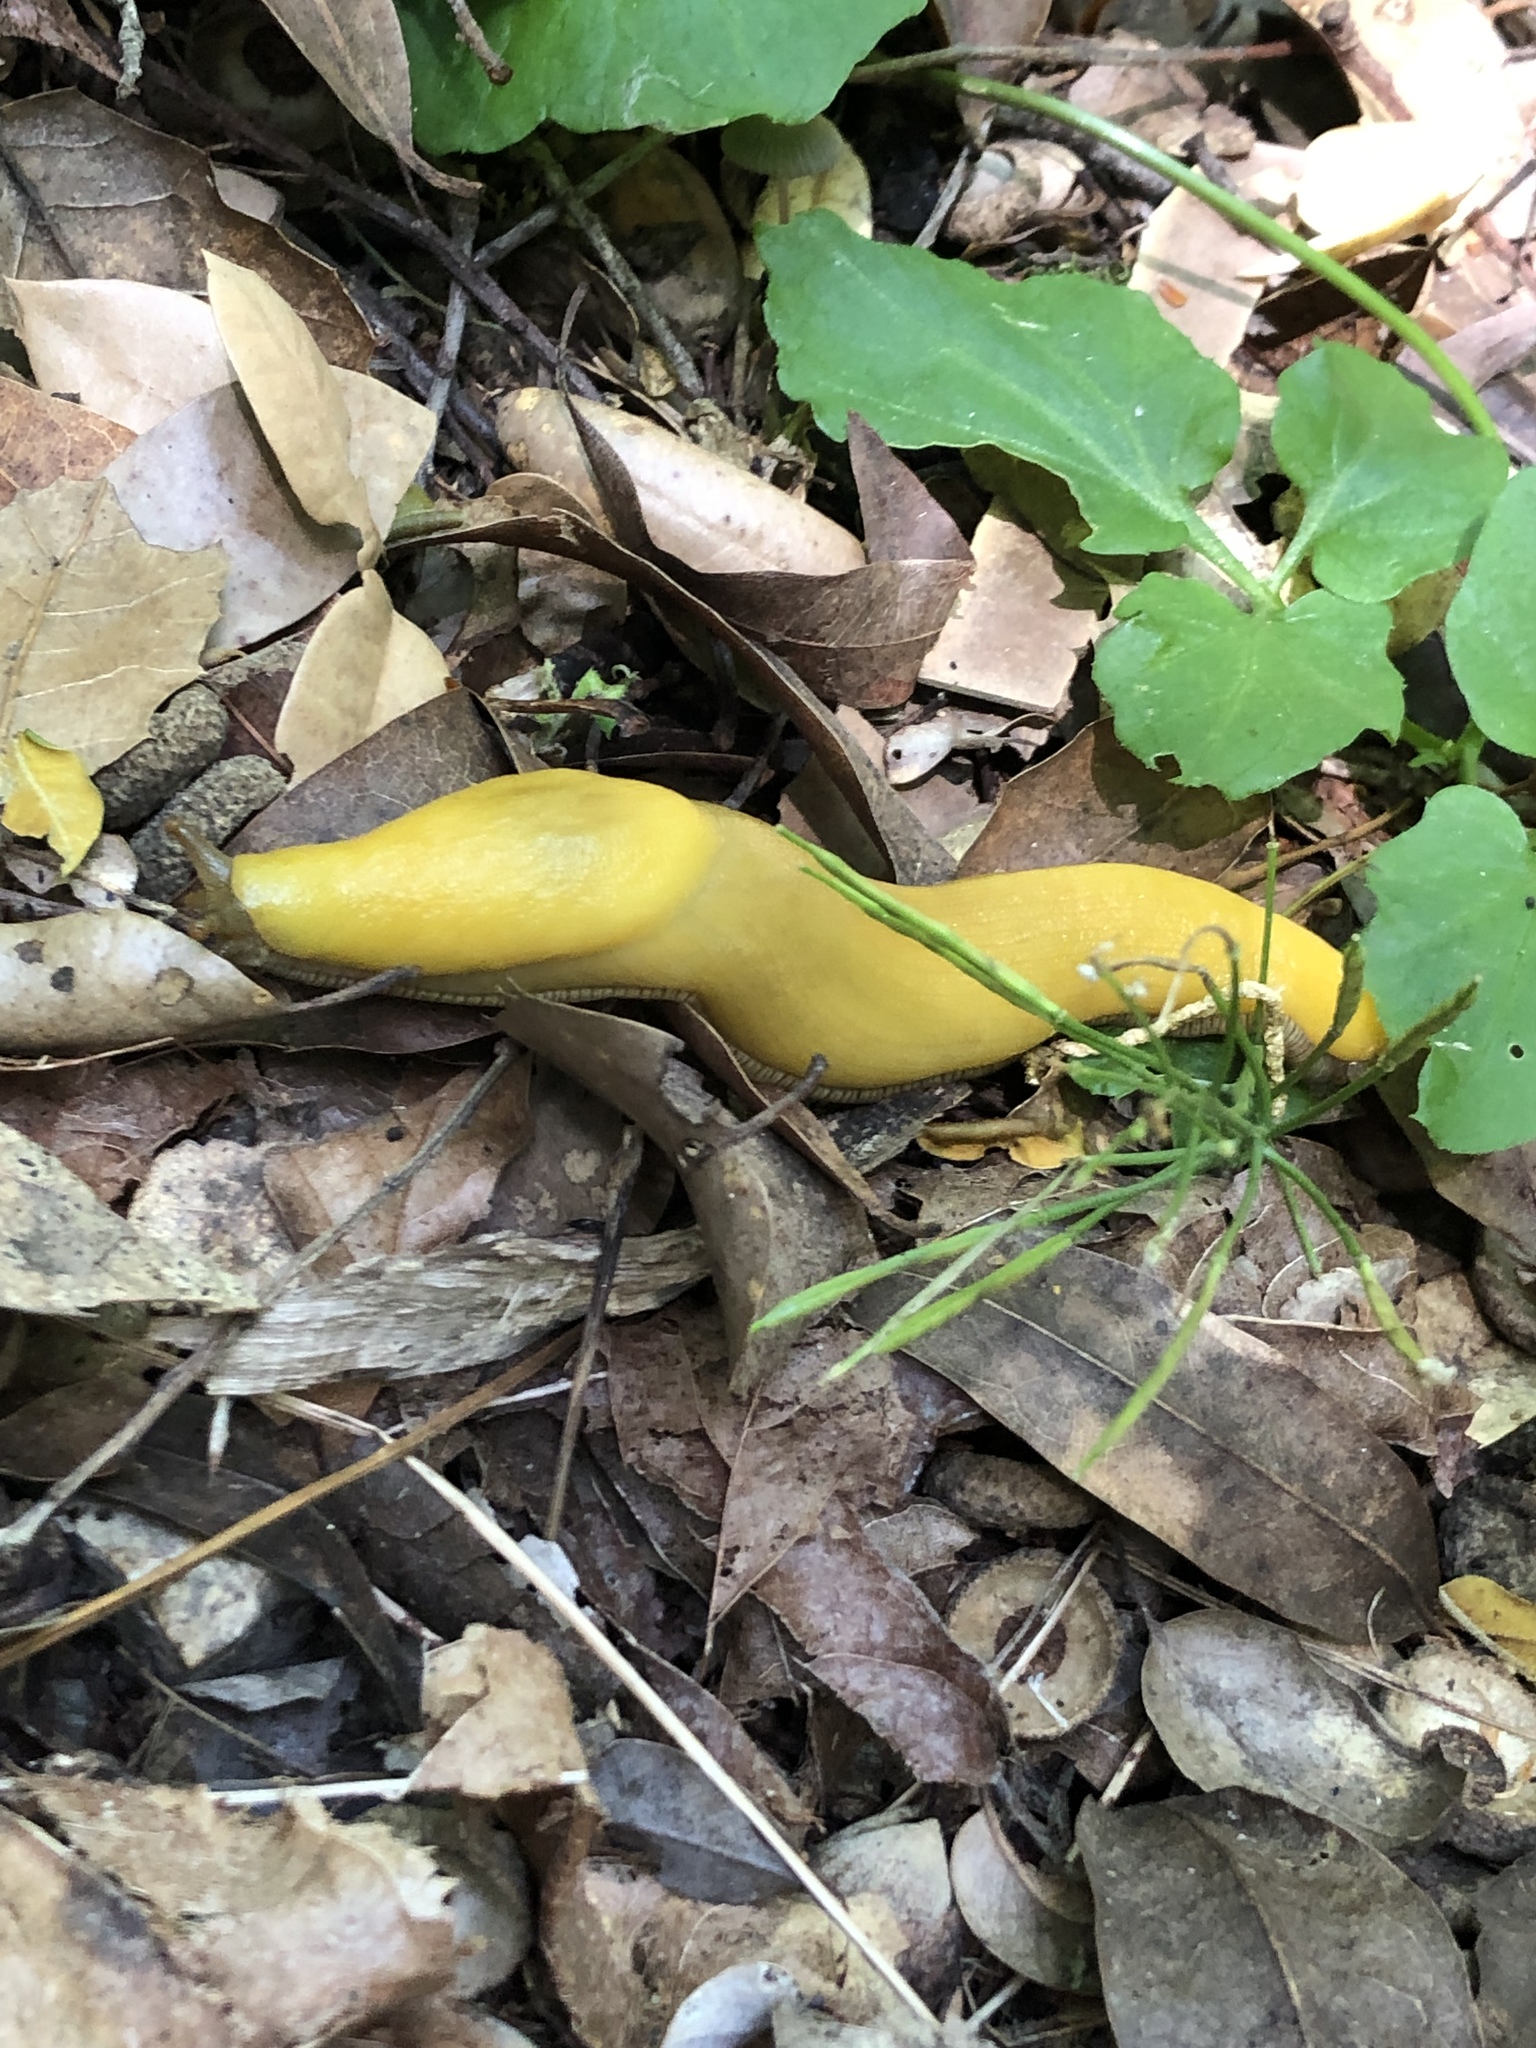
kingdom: Animalia
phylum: Mollusca
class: Gastropoda
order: Stylommatophora
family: Ariolimacidae
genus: Ariolimax
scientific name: Ariolimax
